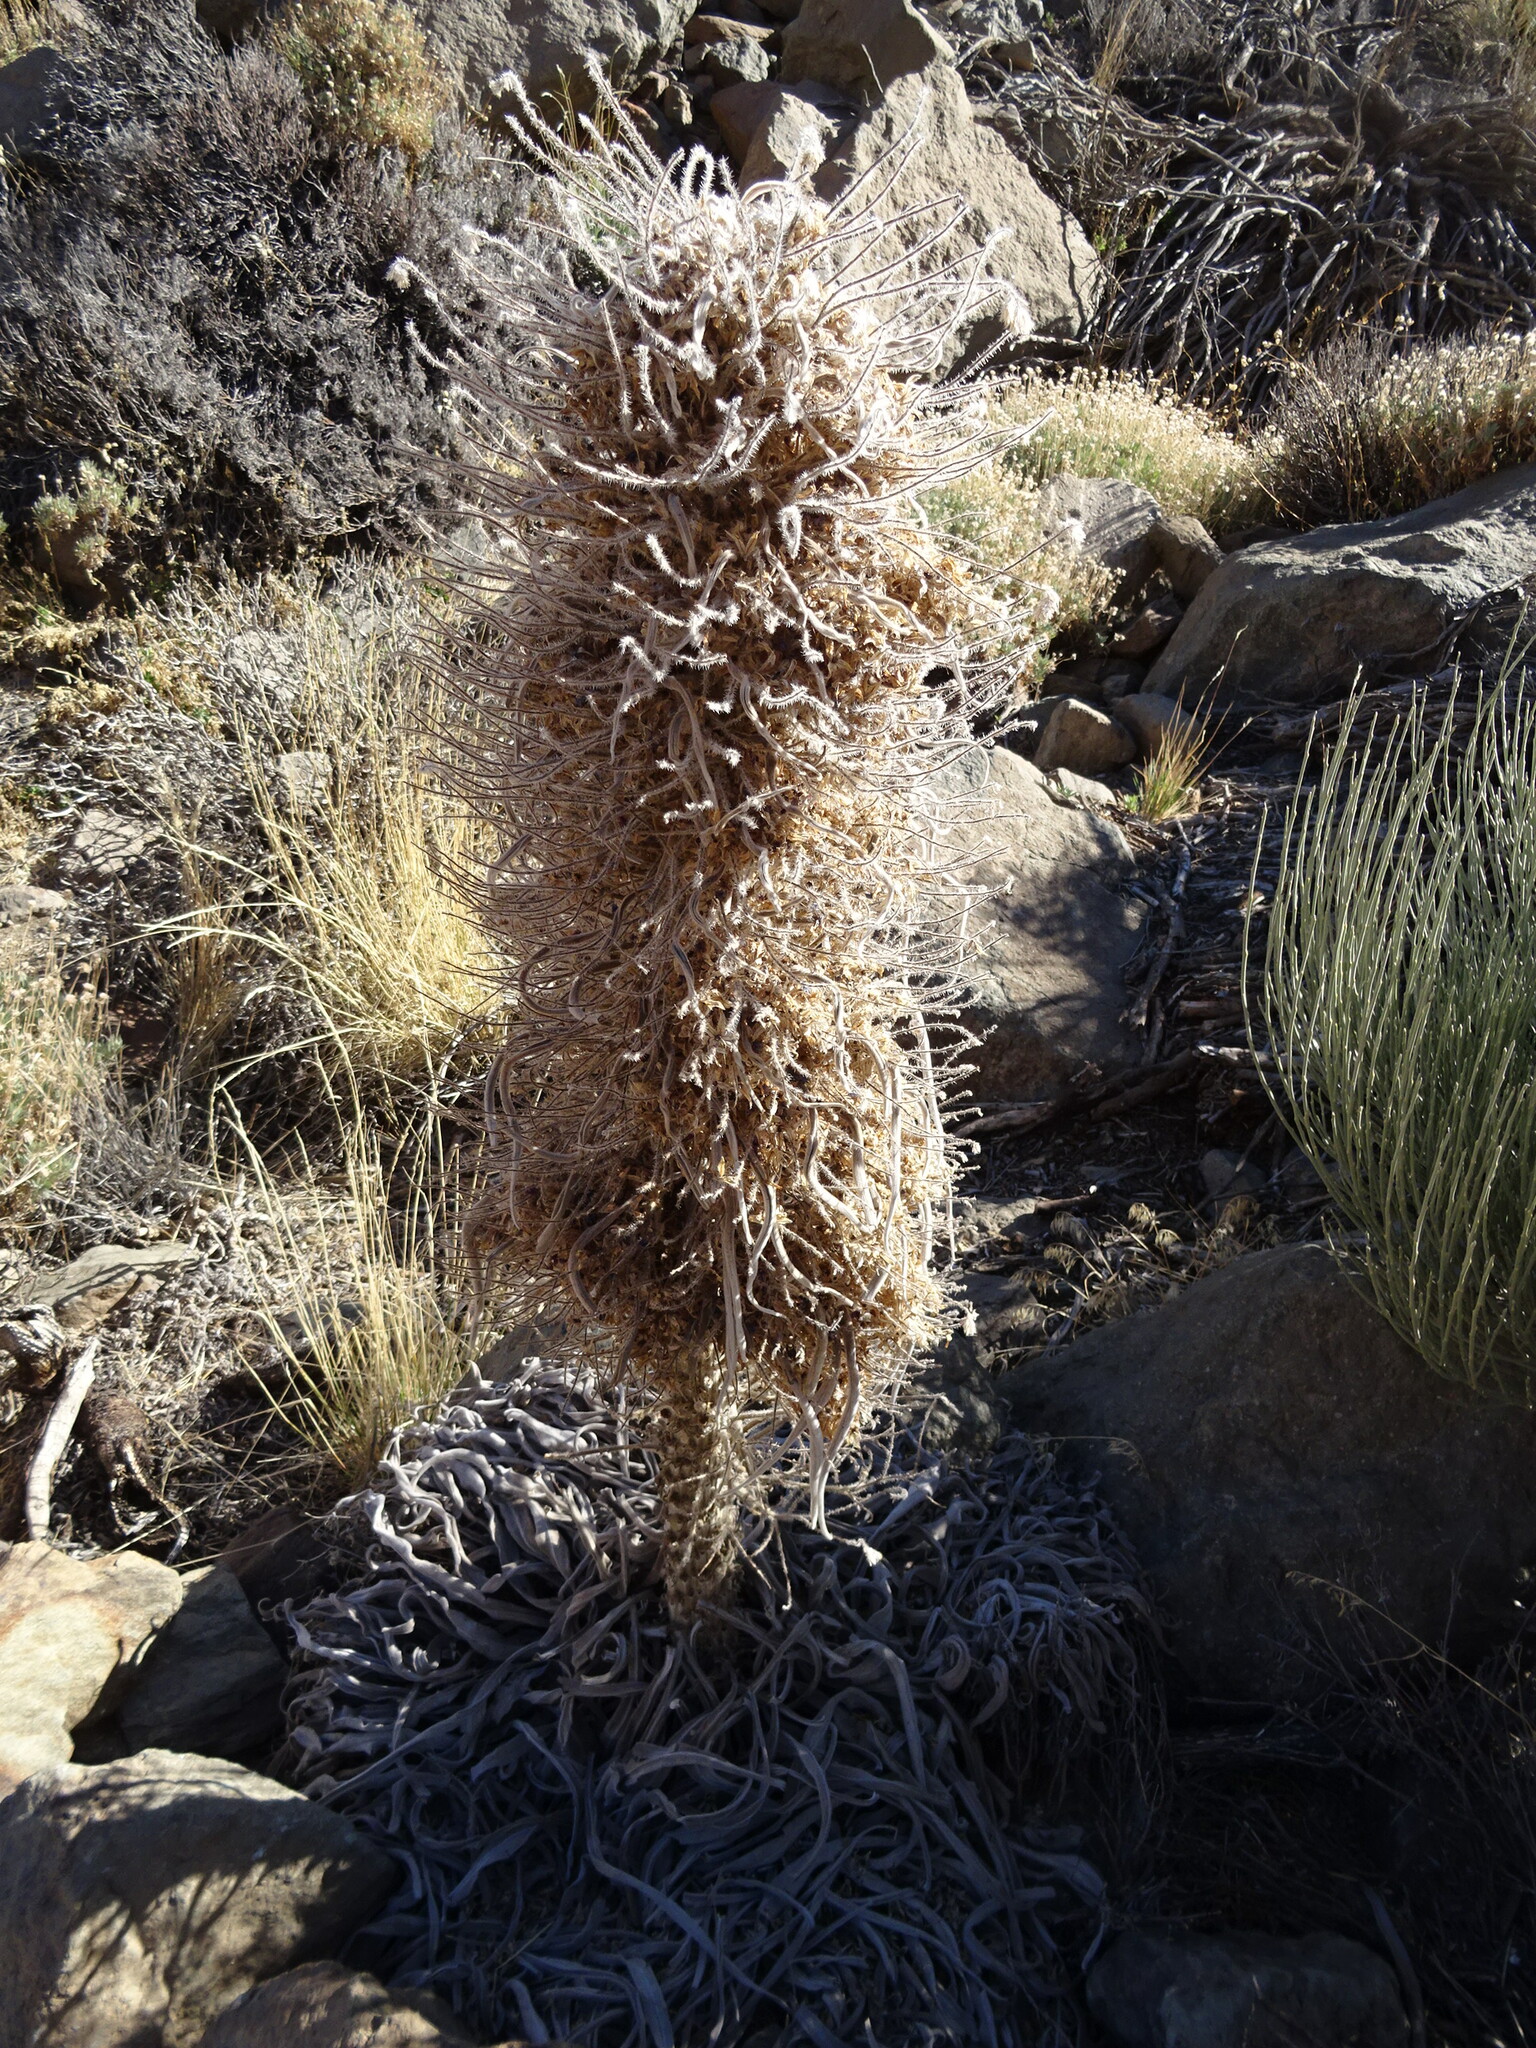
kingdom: Plantae
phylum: Tracheophyta
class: Magnoliopsida
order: Boraginales
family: Boraginaceae
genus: Echium
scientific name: Echium wildpretii
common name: Tower-of-jewels
